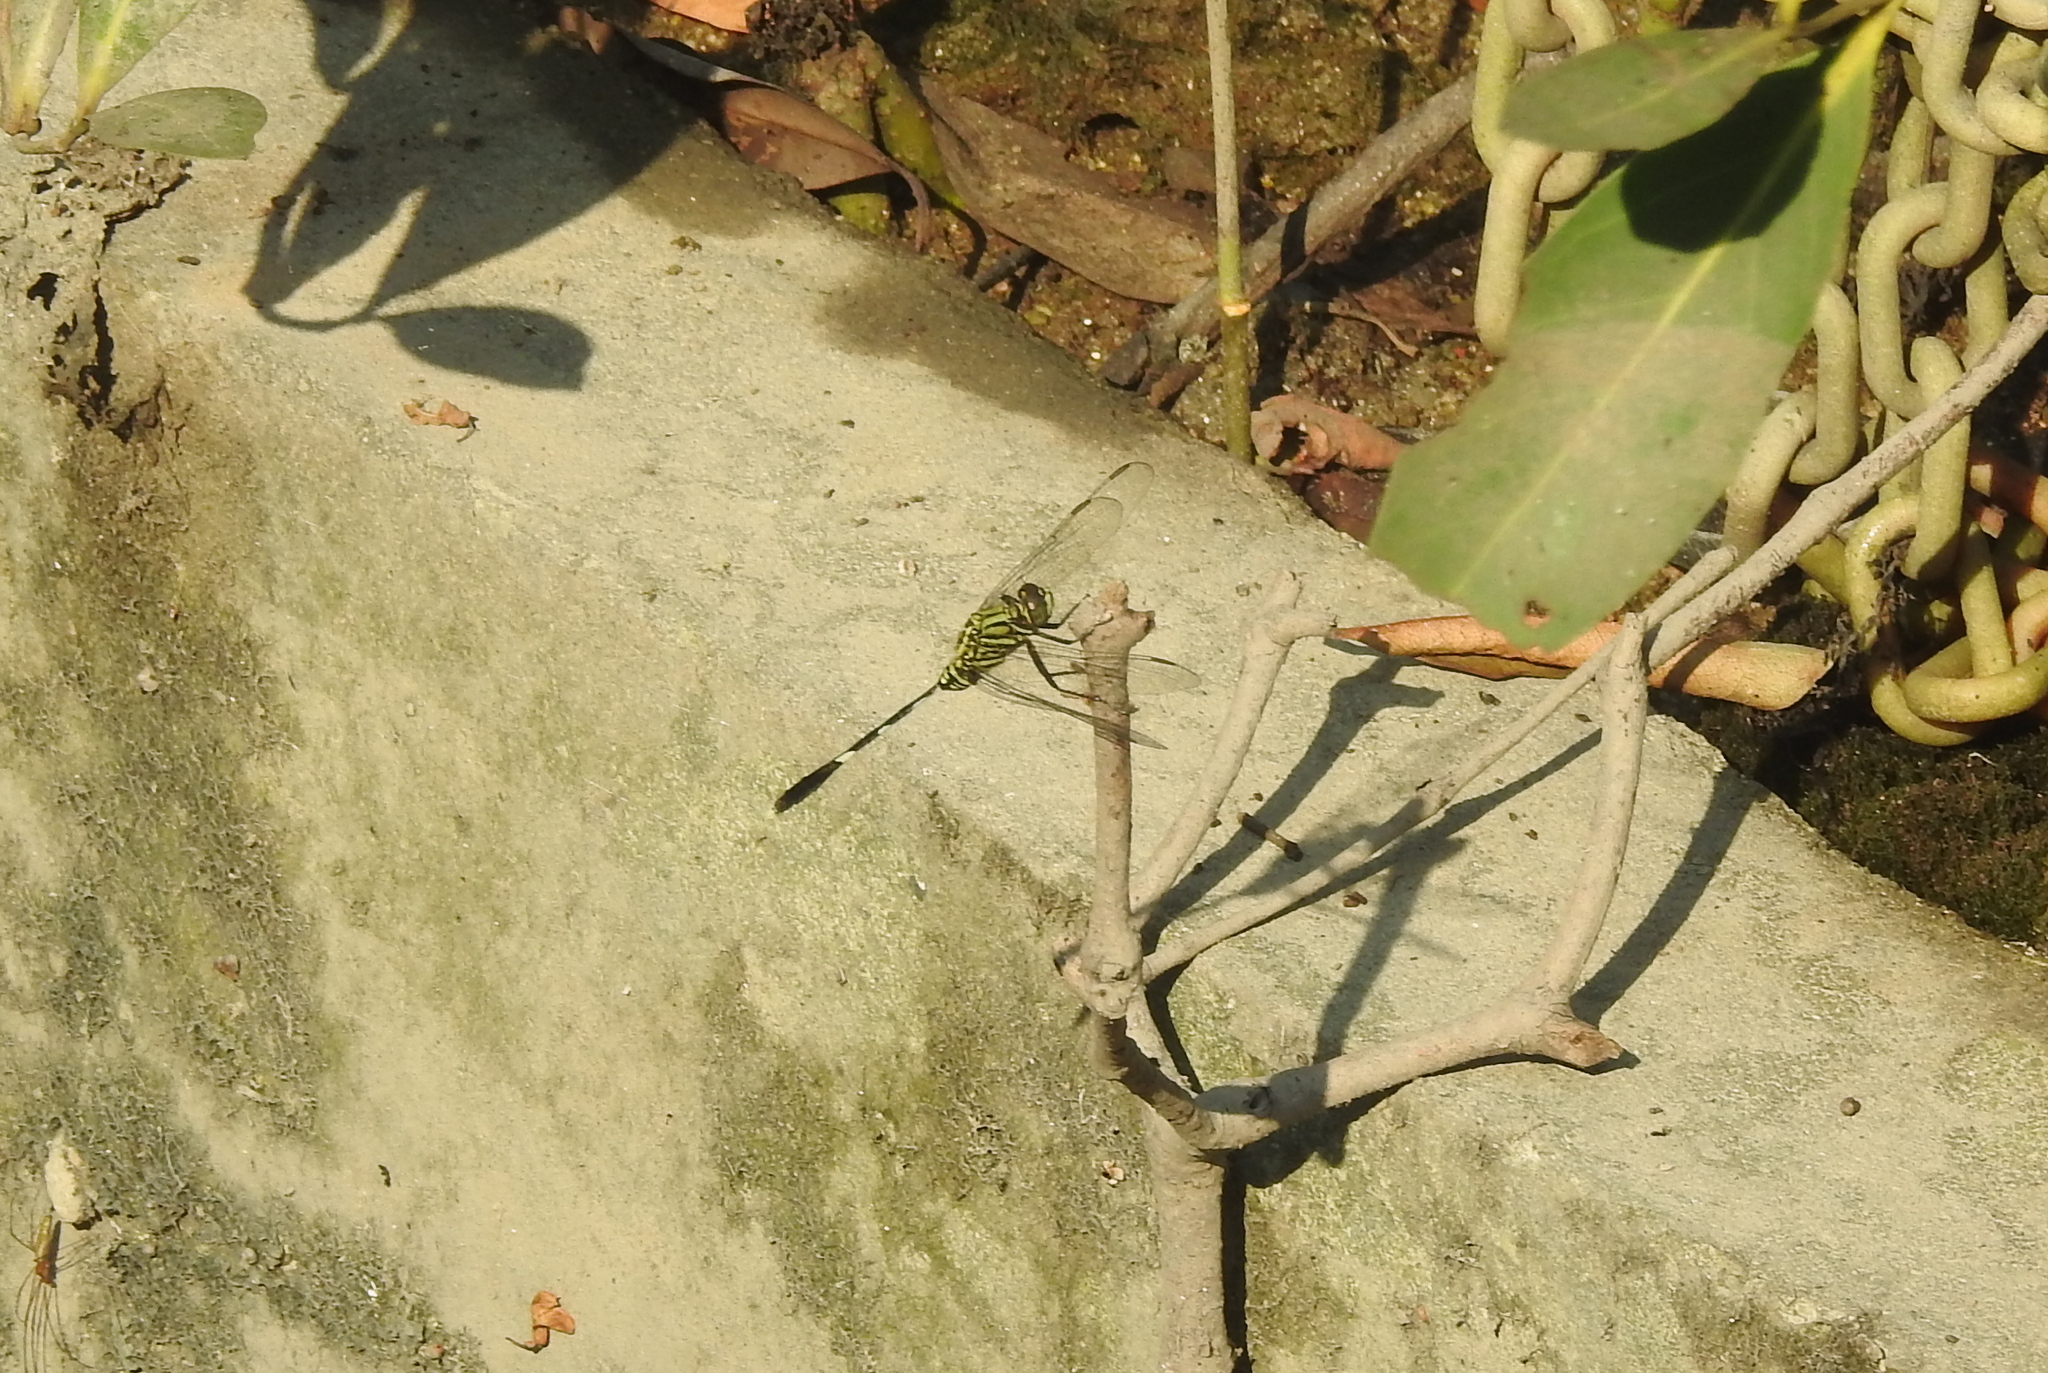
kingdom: Animalia
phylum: Arthropoda
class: Insecta
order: Odonata
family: Libellulidae
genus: Orthetrum
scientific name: Orthetrum sabina
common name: Slender skimmer
